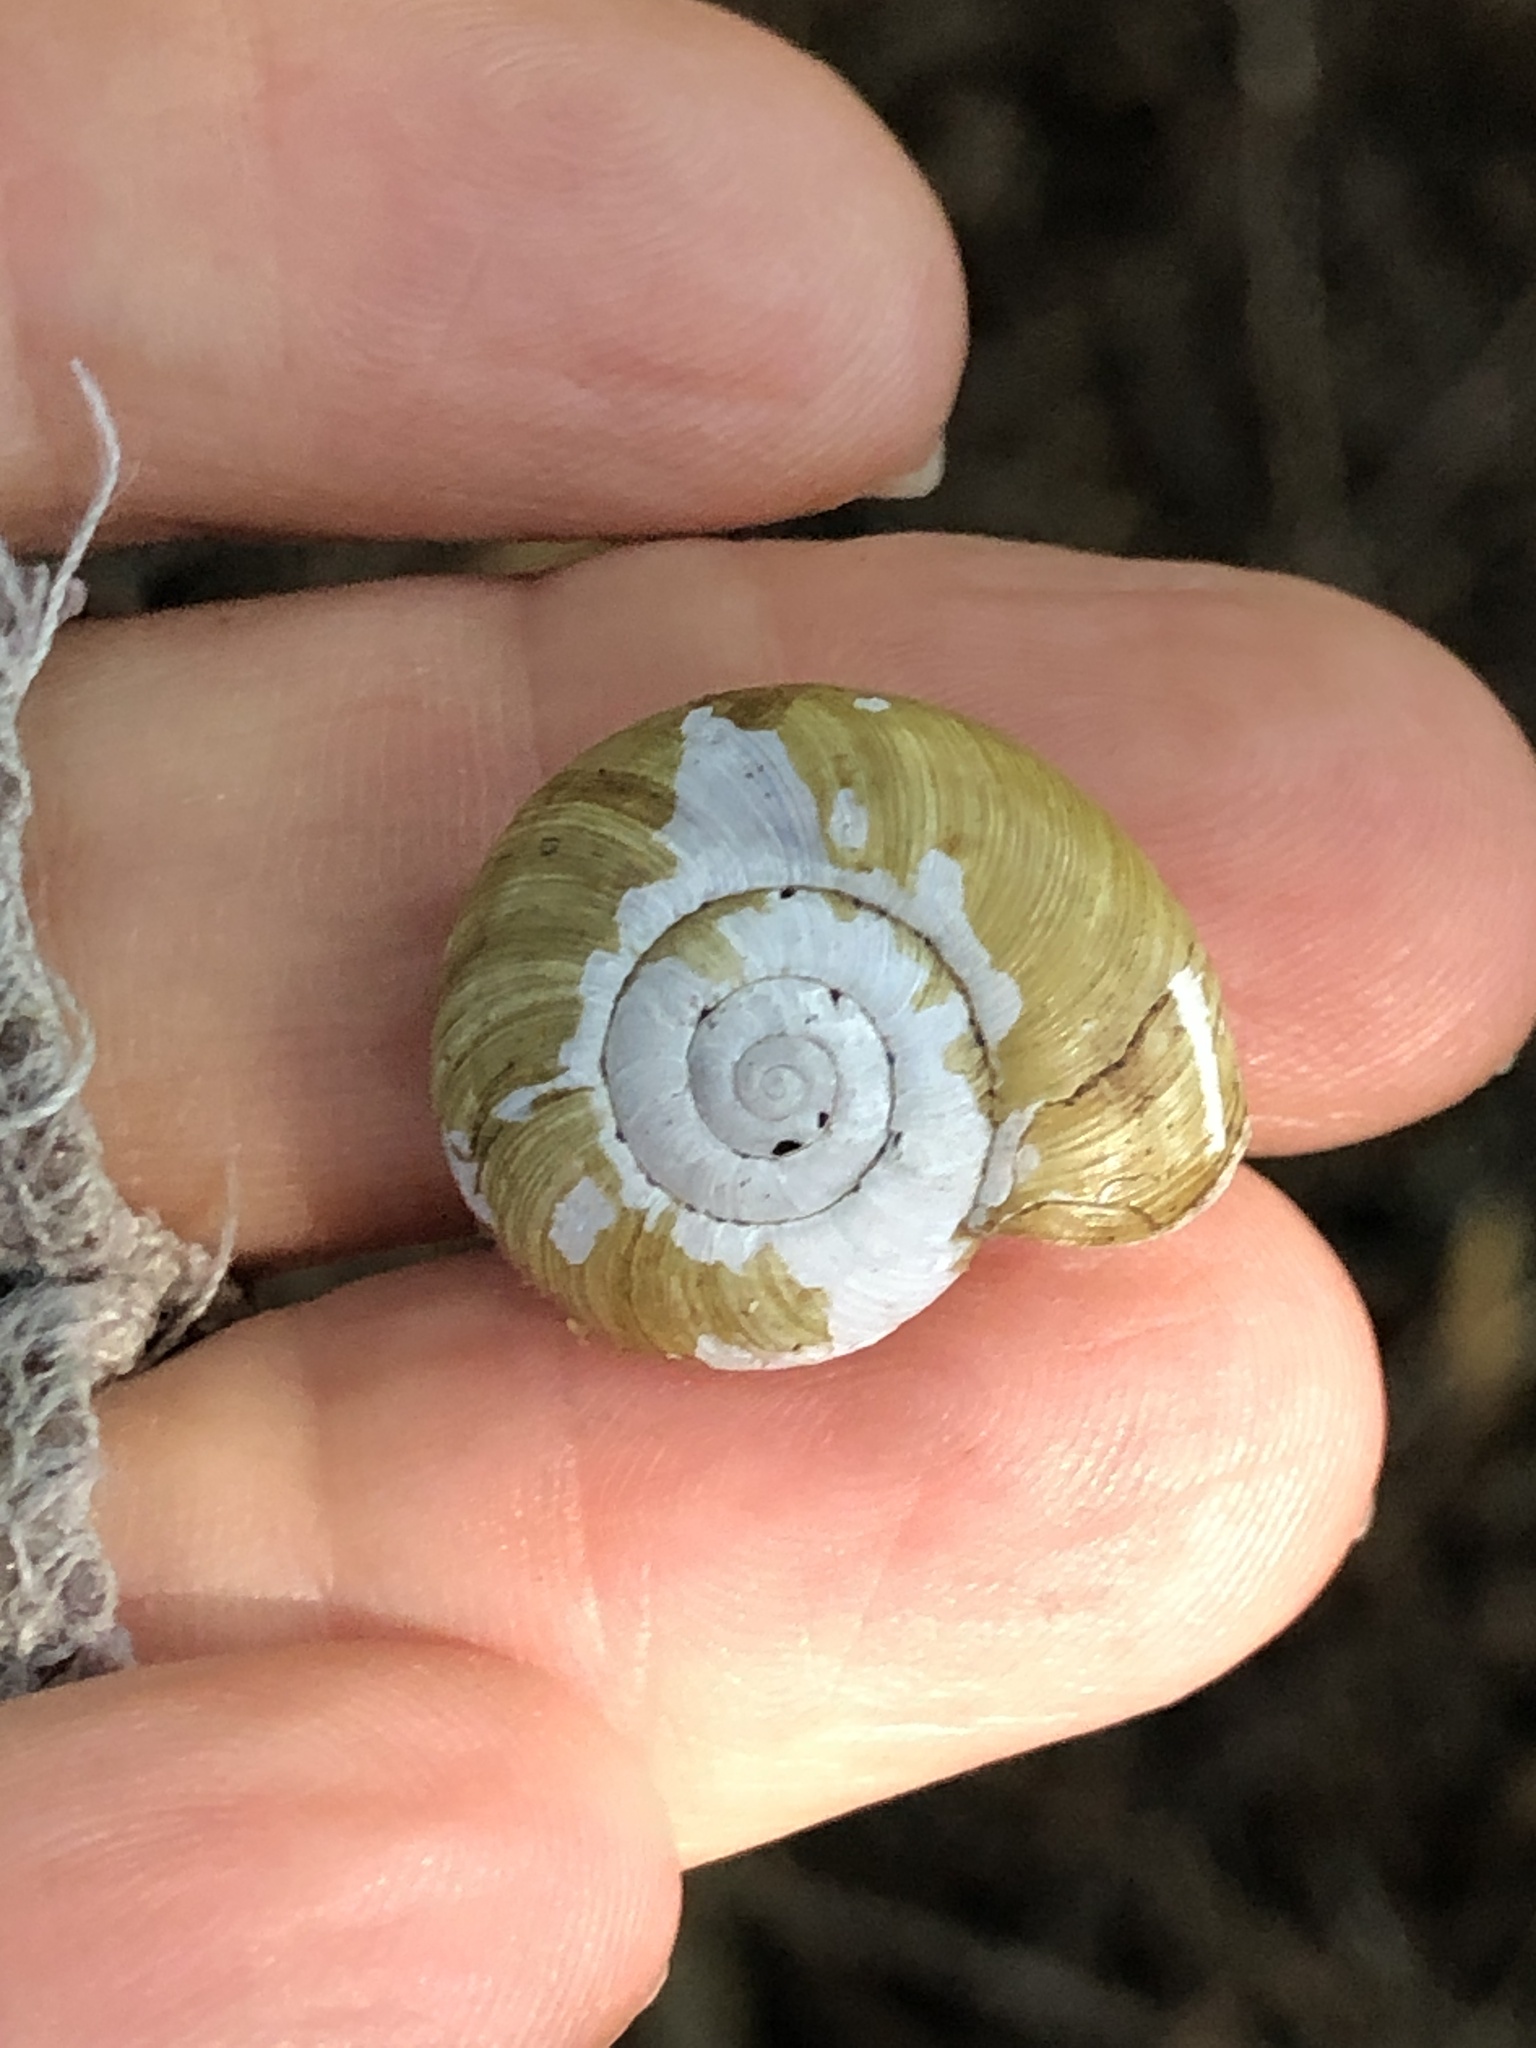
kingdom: Animalia
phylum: Mollusca
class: Gastropoda
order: Stylommatophora
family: Haplotrematidae
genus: Haplotrema
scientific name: Haplotrema minimum
